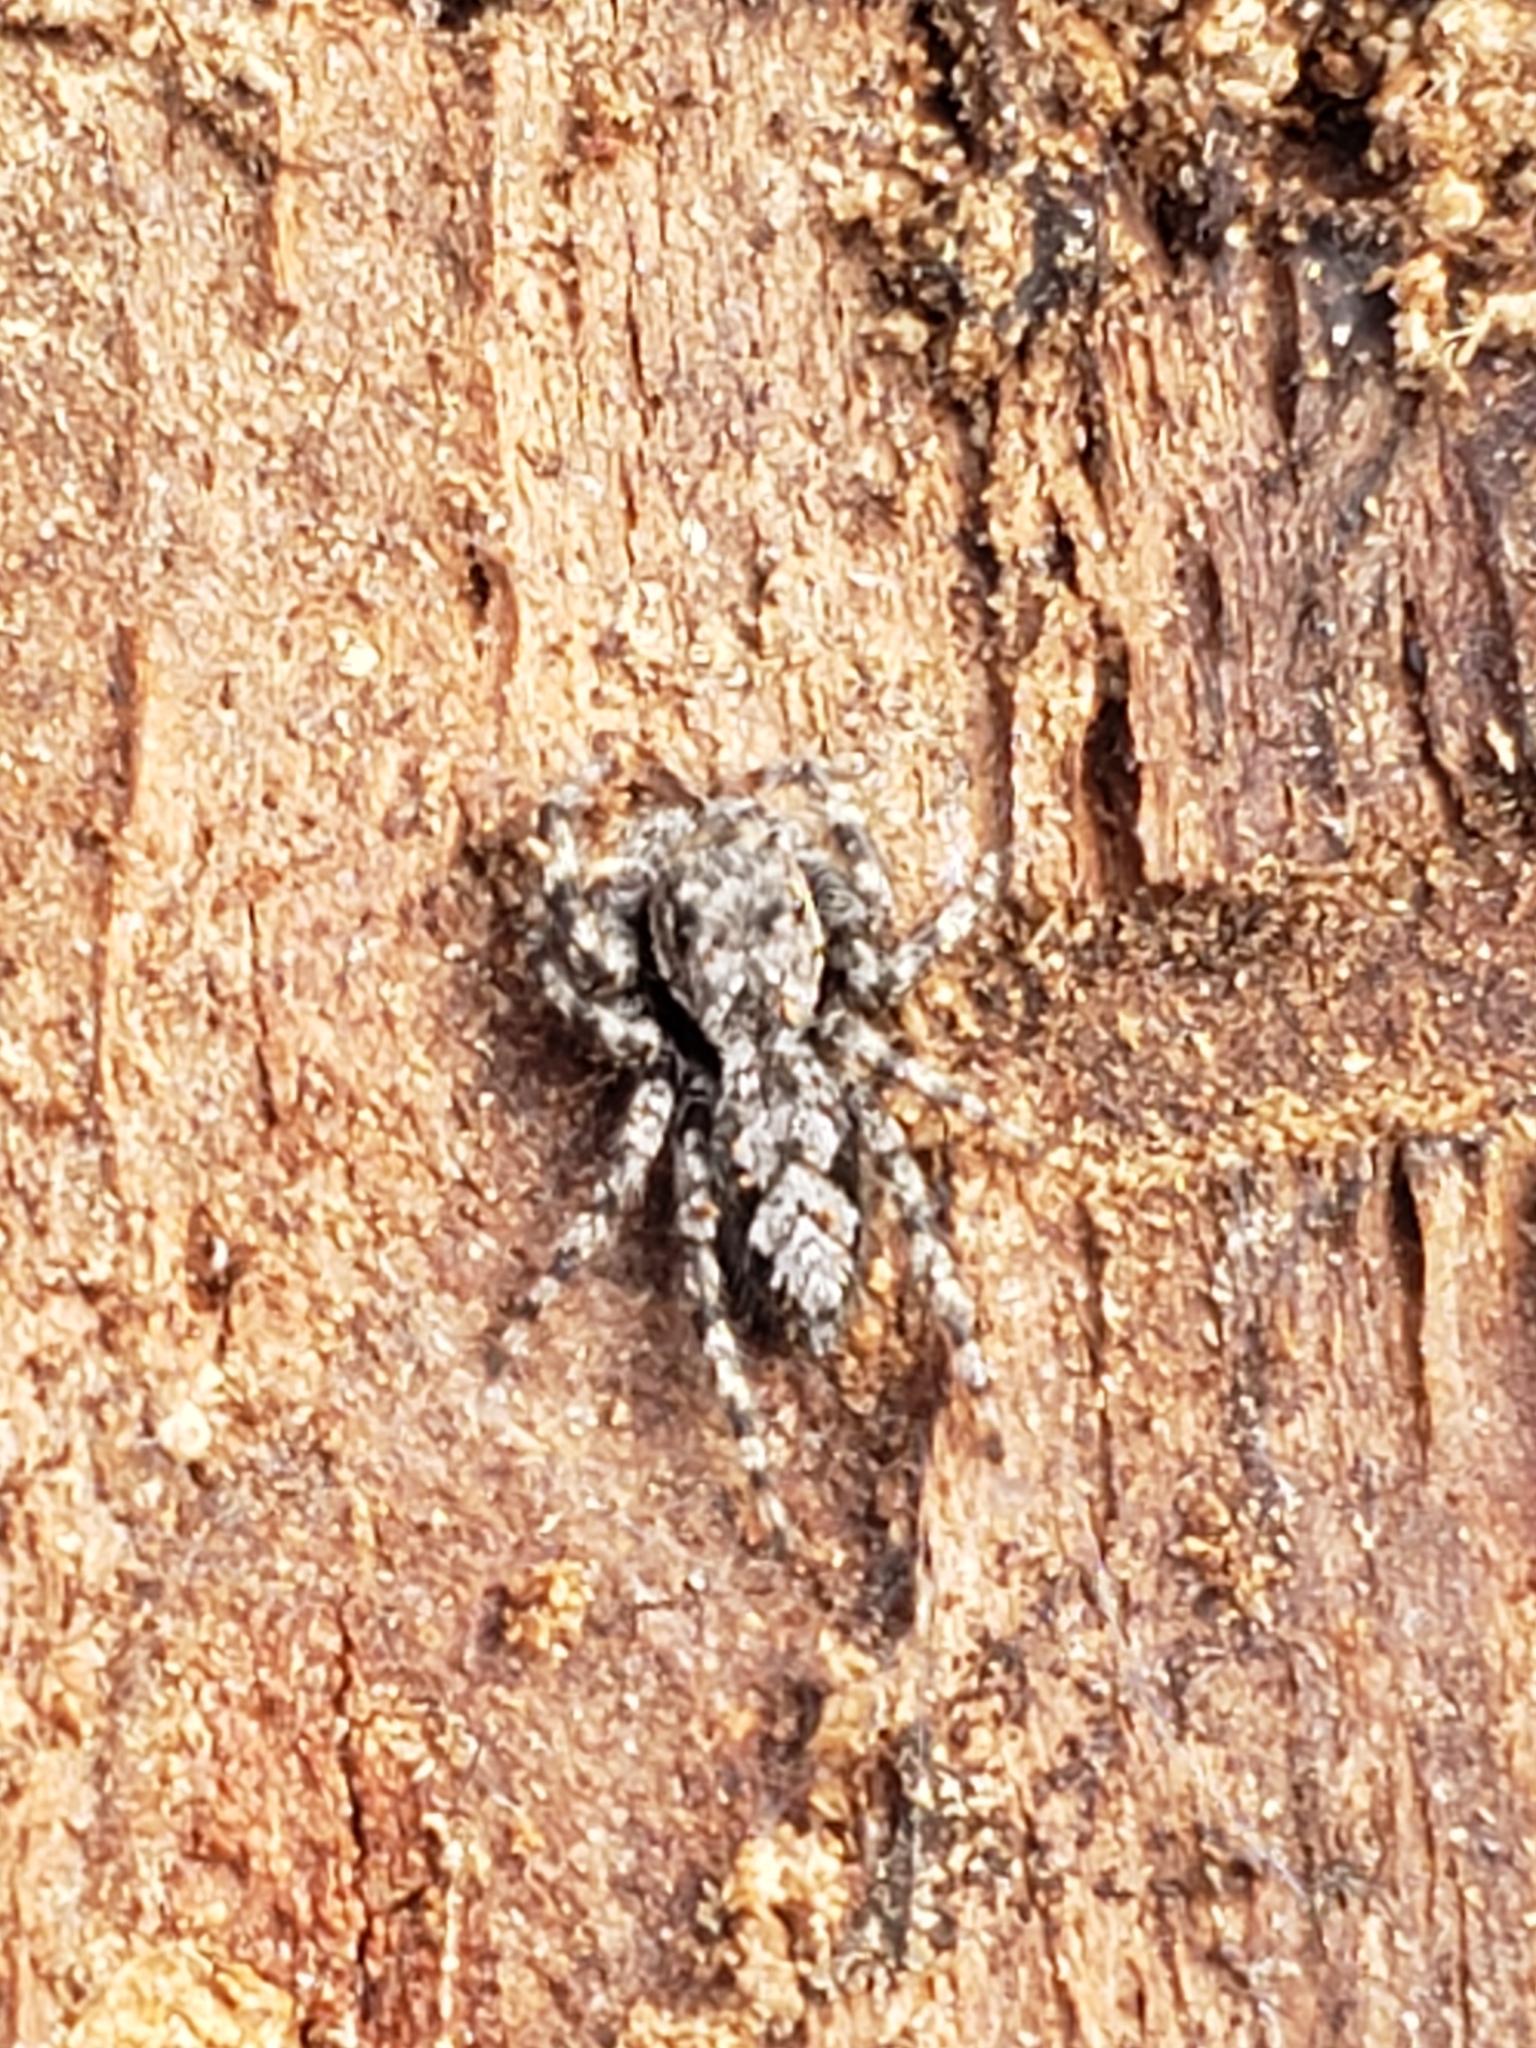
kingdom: Animalia
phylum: Arthropoda
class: Arachnida
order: Araneae
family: Salticidae
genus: Platycryptus
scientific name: Platycryptus undatus
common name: Tan jumping spider
